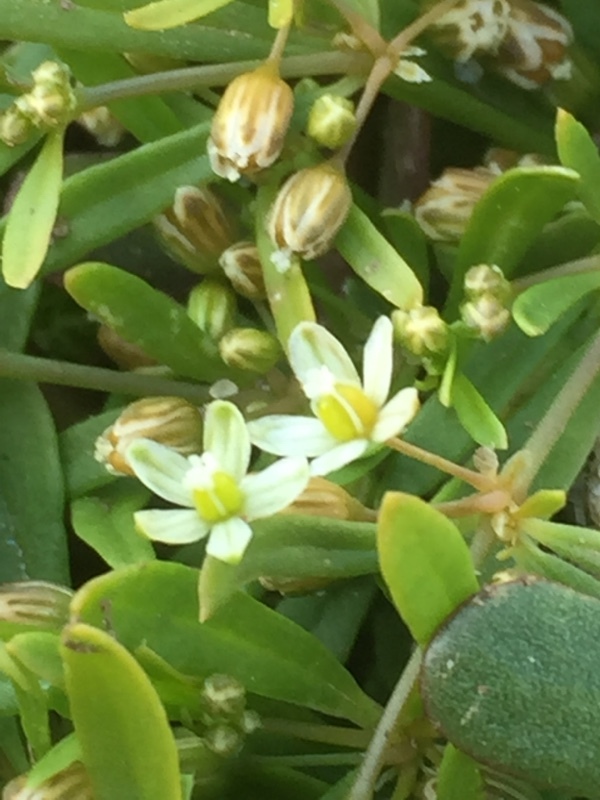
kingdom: Plantae
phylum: Tracheophyta
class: Magnoliopsida
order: Caryophyllales
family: Molluginaceae
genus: Mollugo
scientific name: Mollugo verticillata
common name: Green carpetweed
